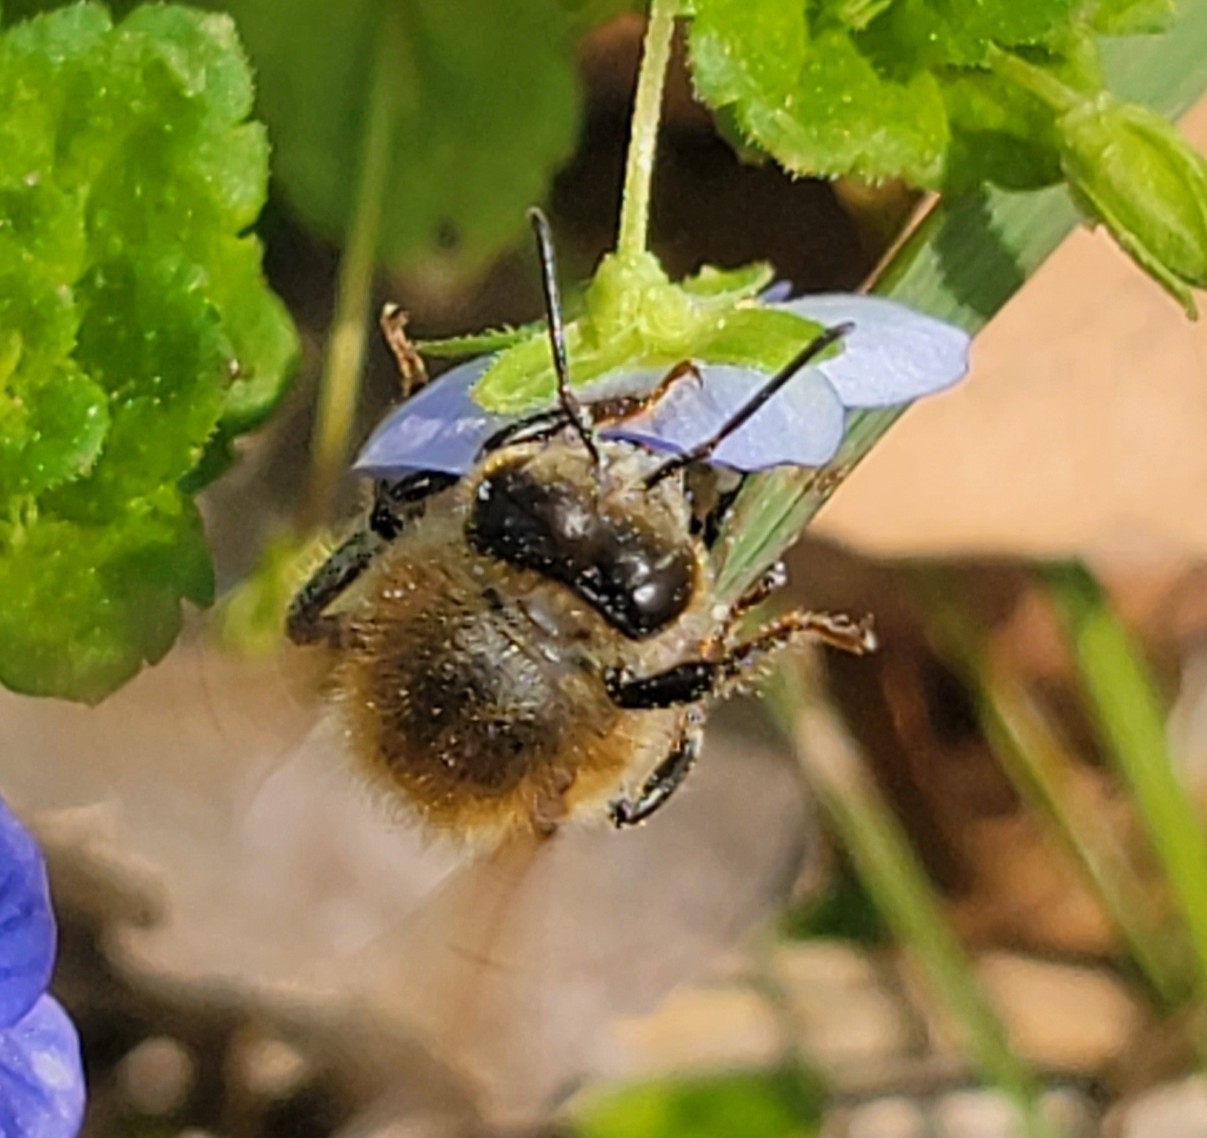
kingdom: Animalia
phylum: Arthropoda
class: Insecta
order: Hymenoptera
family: Apidae
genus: Apis
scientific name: Apis mellifera
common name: Honey bee
